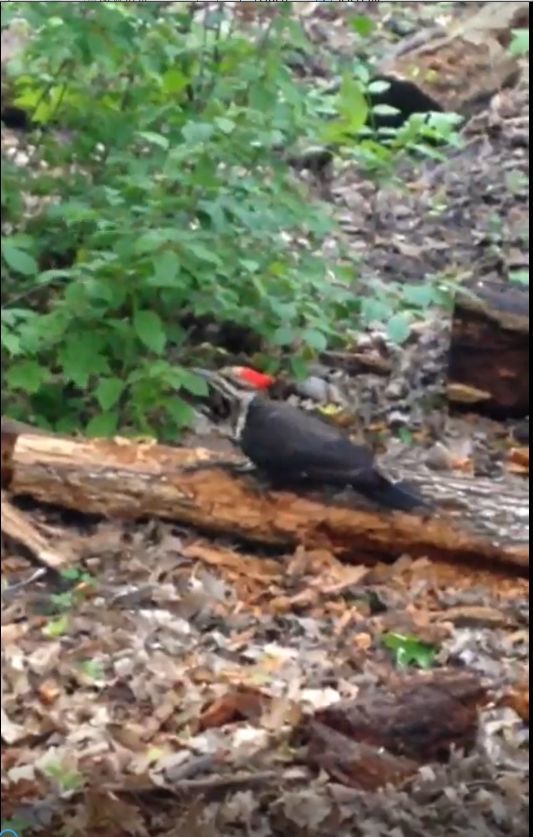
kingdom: Animalia
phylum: Chordata
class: Aves
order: Piciformes
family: Picidae
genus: Dryocopus
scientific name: Dryocopus pileatus
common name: Pileated woodpecker
